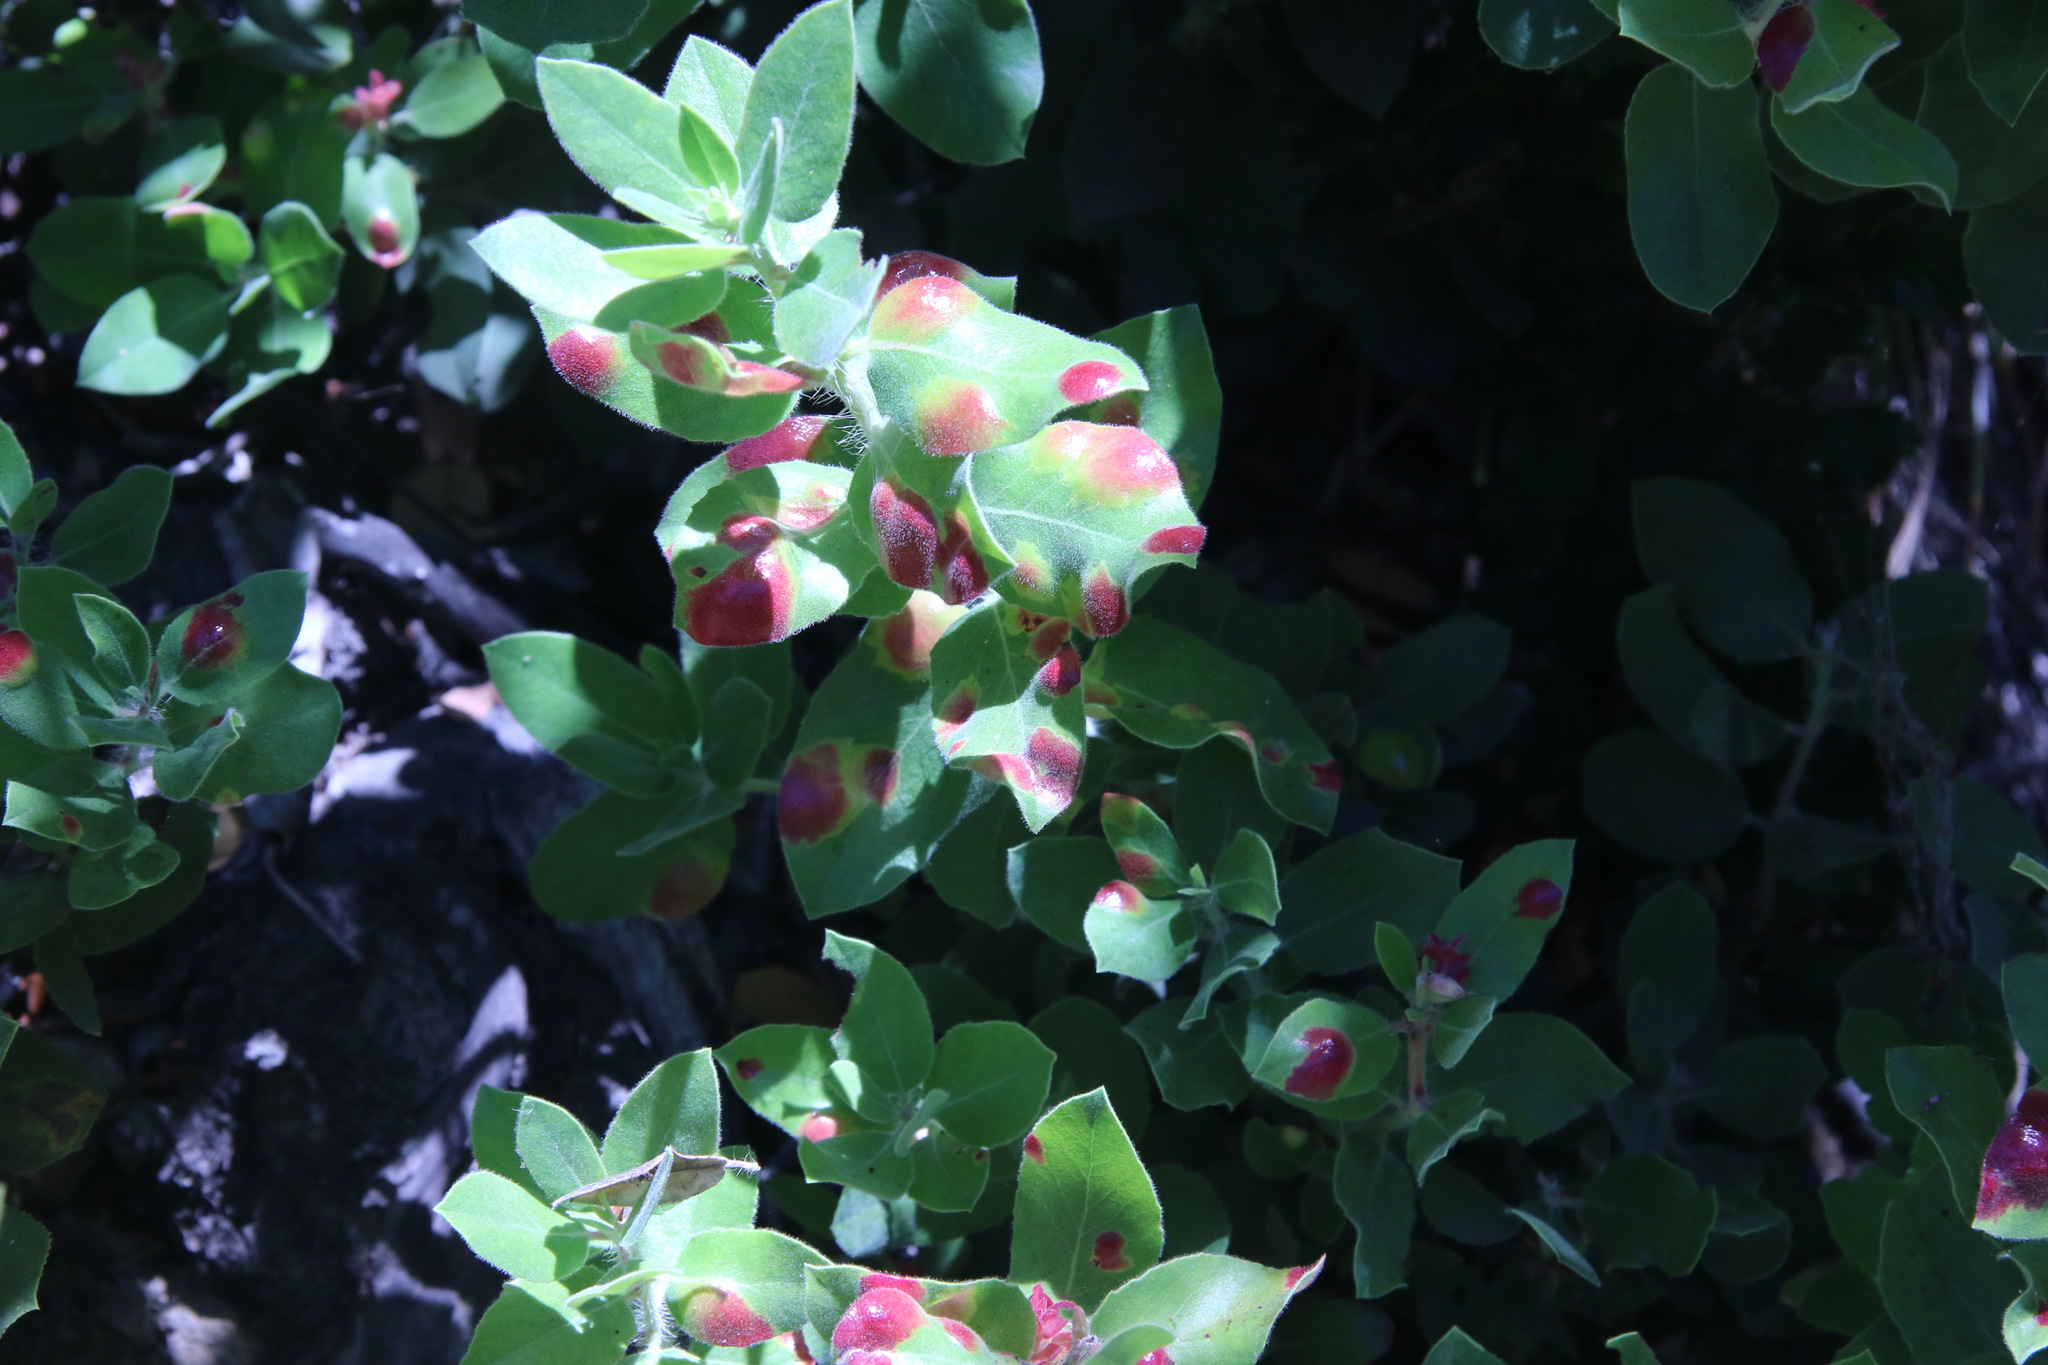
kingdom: Plantae
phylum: Tracheophyta
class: Magnoliopsida
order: Ericales
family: Ericaceae
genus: Arctostaphylos
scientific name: Arctostaphylos crustacea
